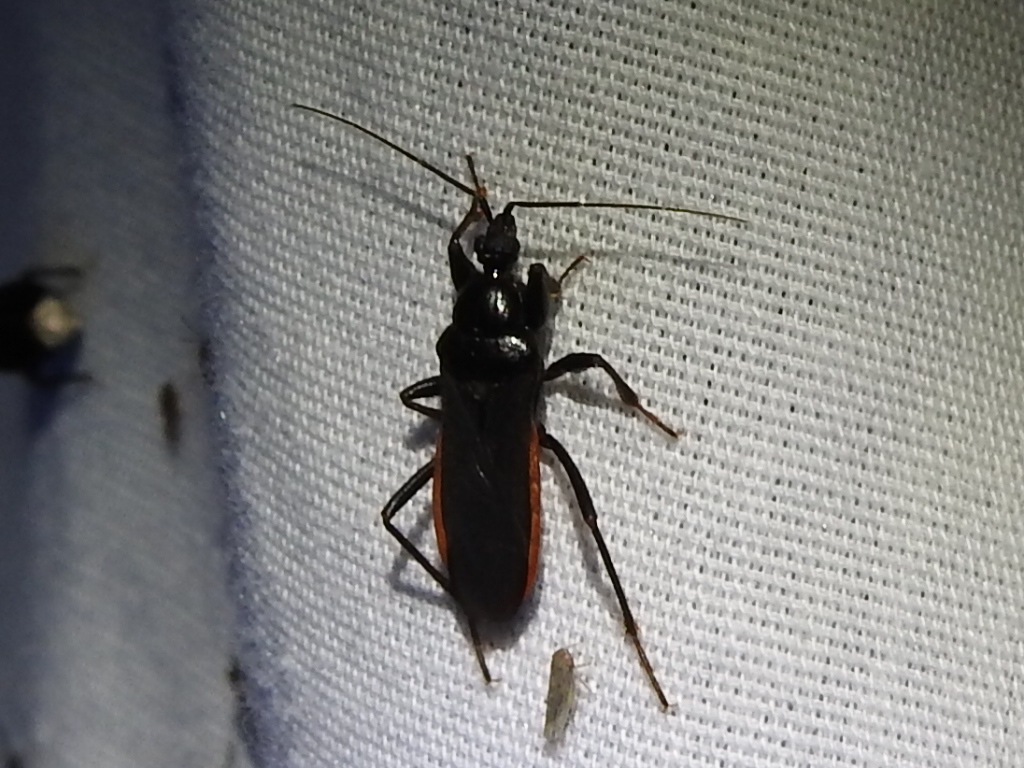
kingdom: Animalia
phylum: Arthropoda
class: Insecta
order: Hemiptera
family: Reduviidae
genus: Melanolestes
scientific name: Melanolestes picipes
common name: Assassin bug
